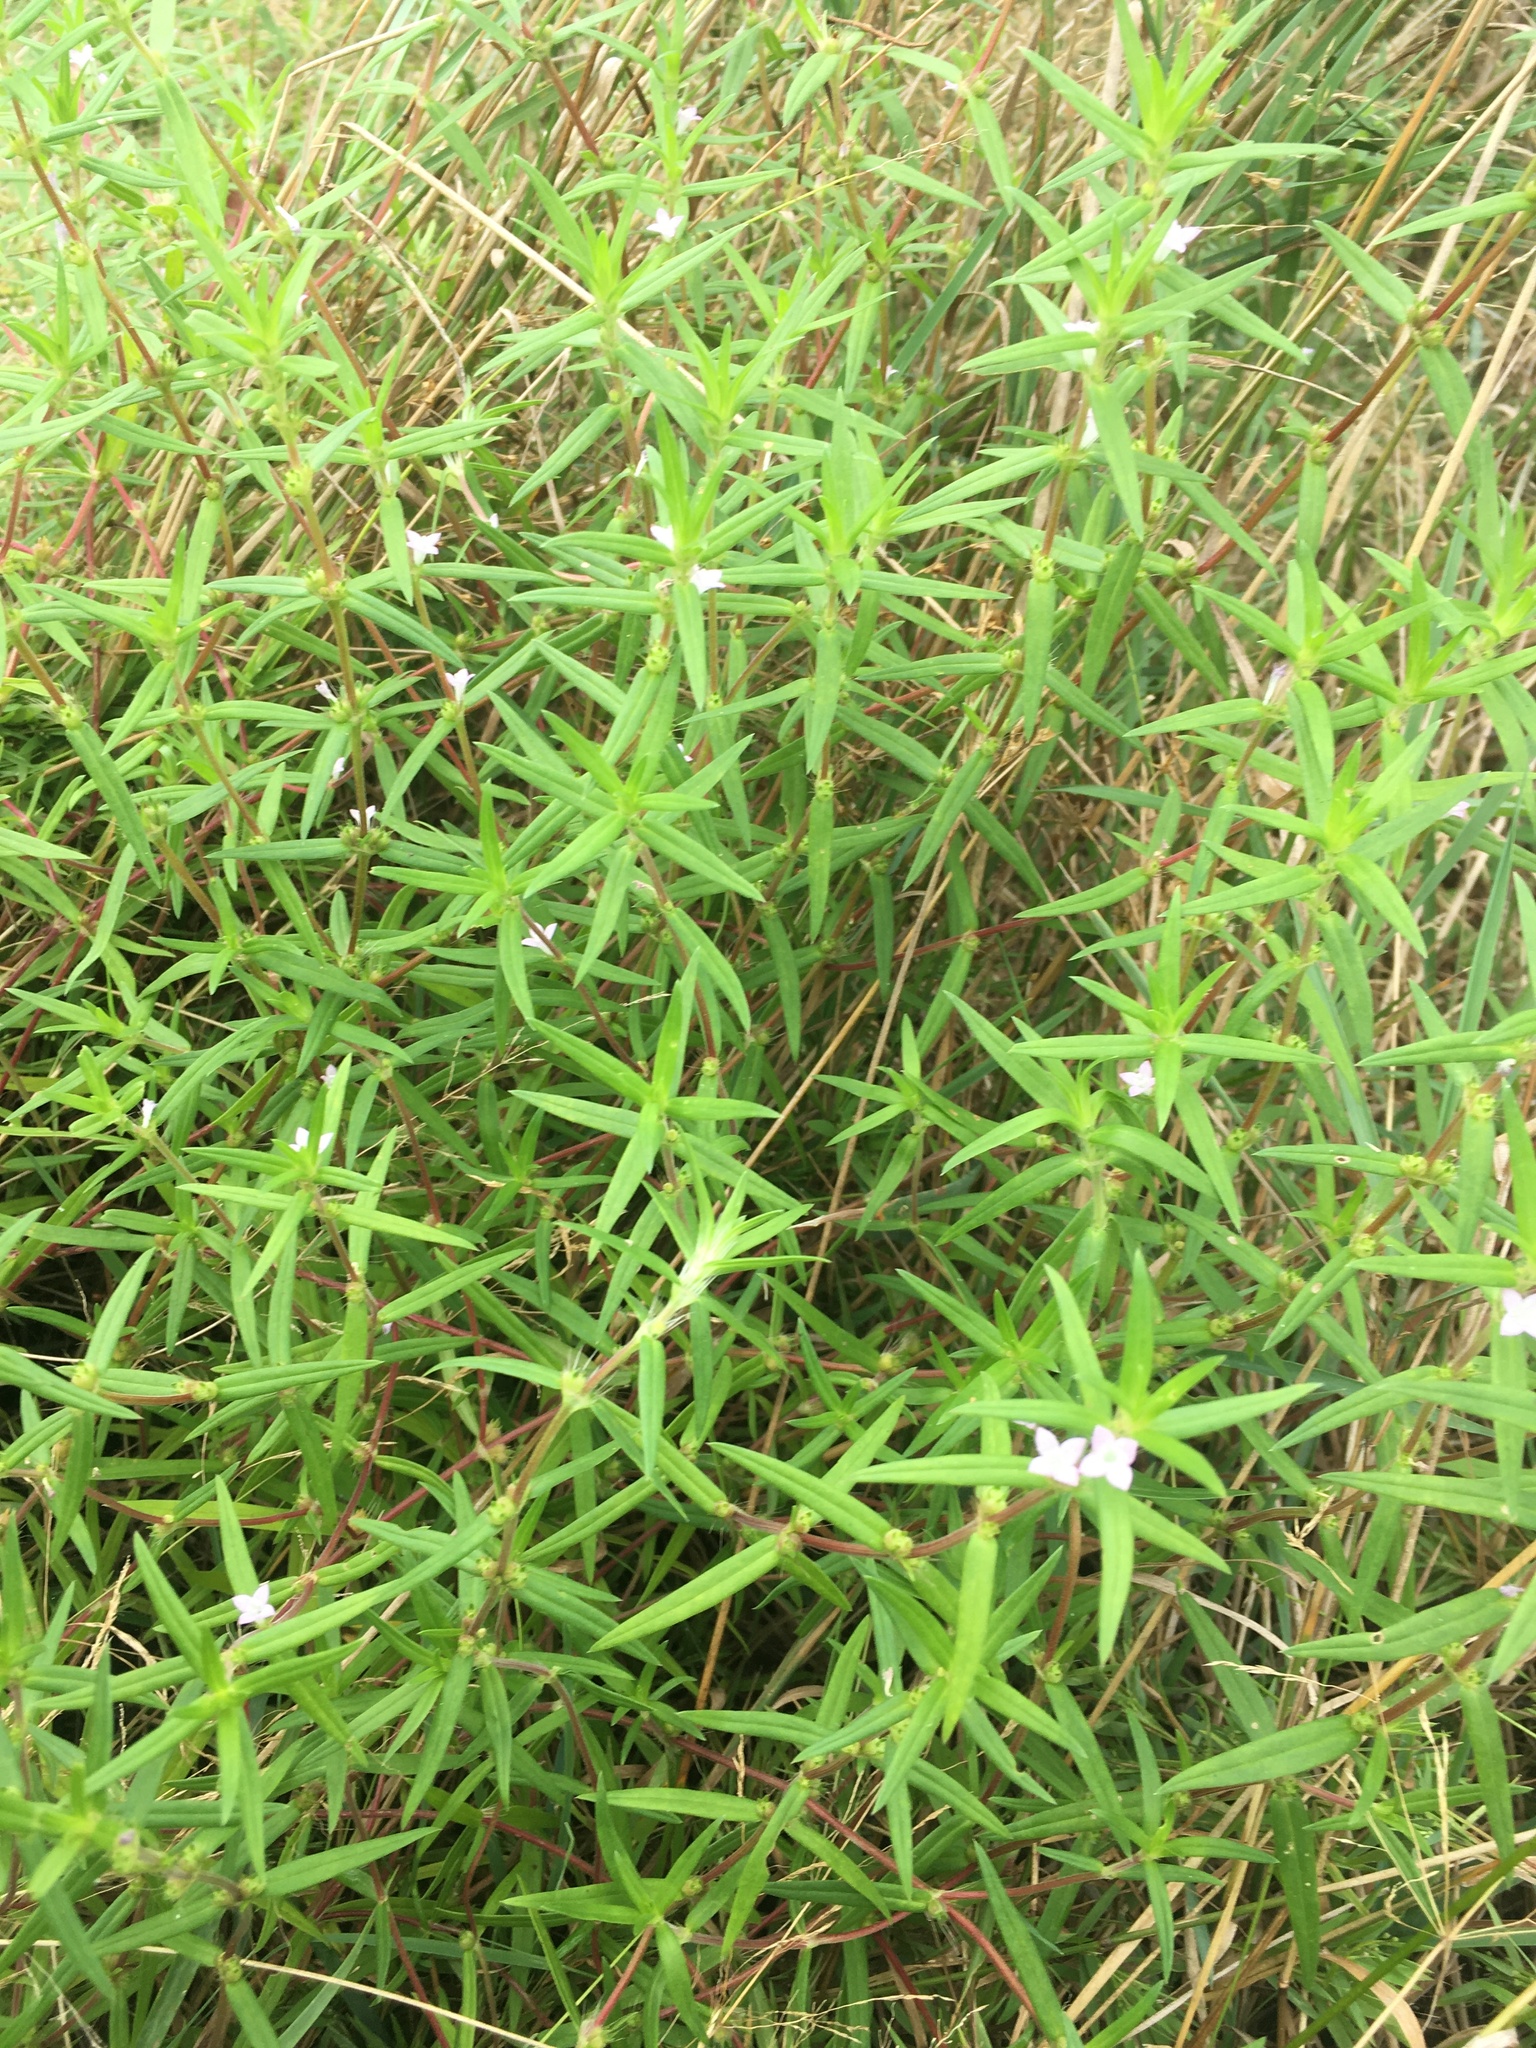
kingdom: Plantae
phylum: Tracheophyta
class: Magnoliopsida
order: Gentianales
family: Rubiaceae
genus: Hexasepalum
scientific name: Hexasepalum teres
